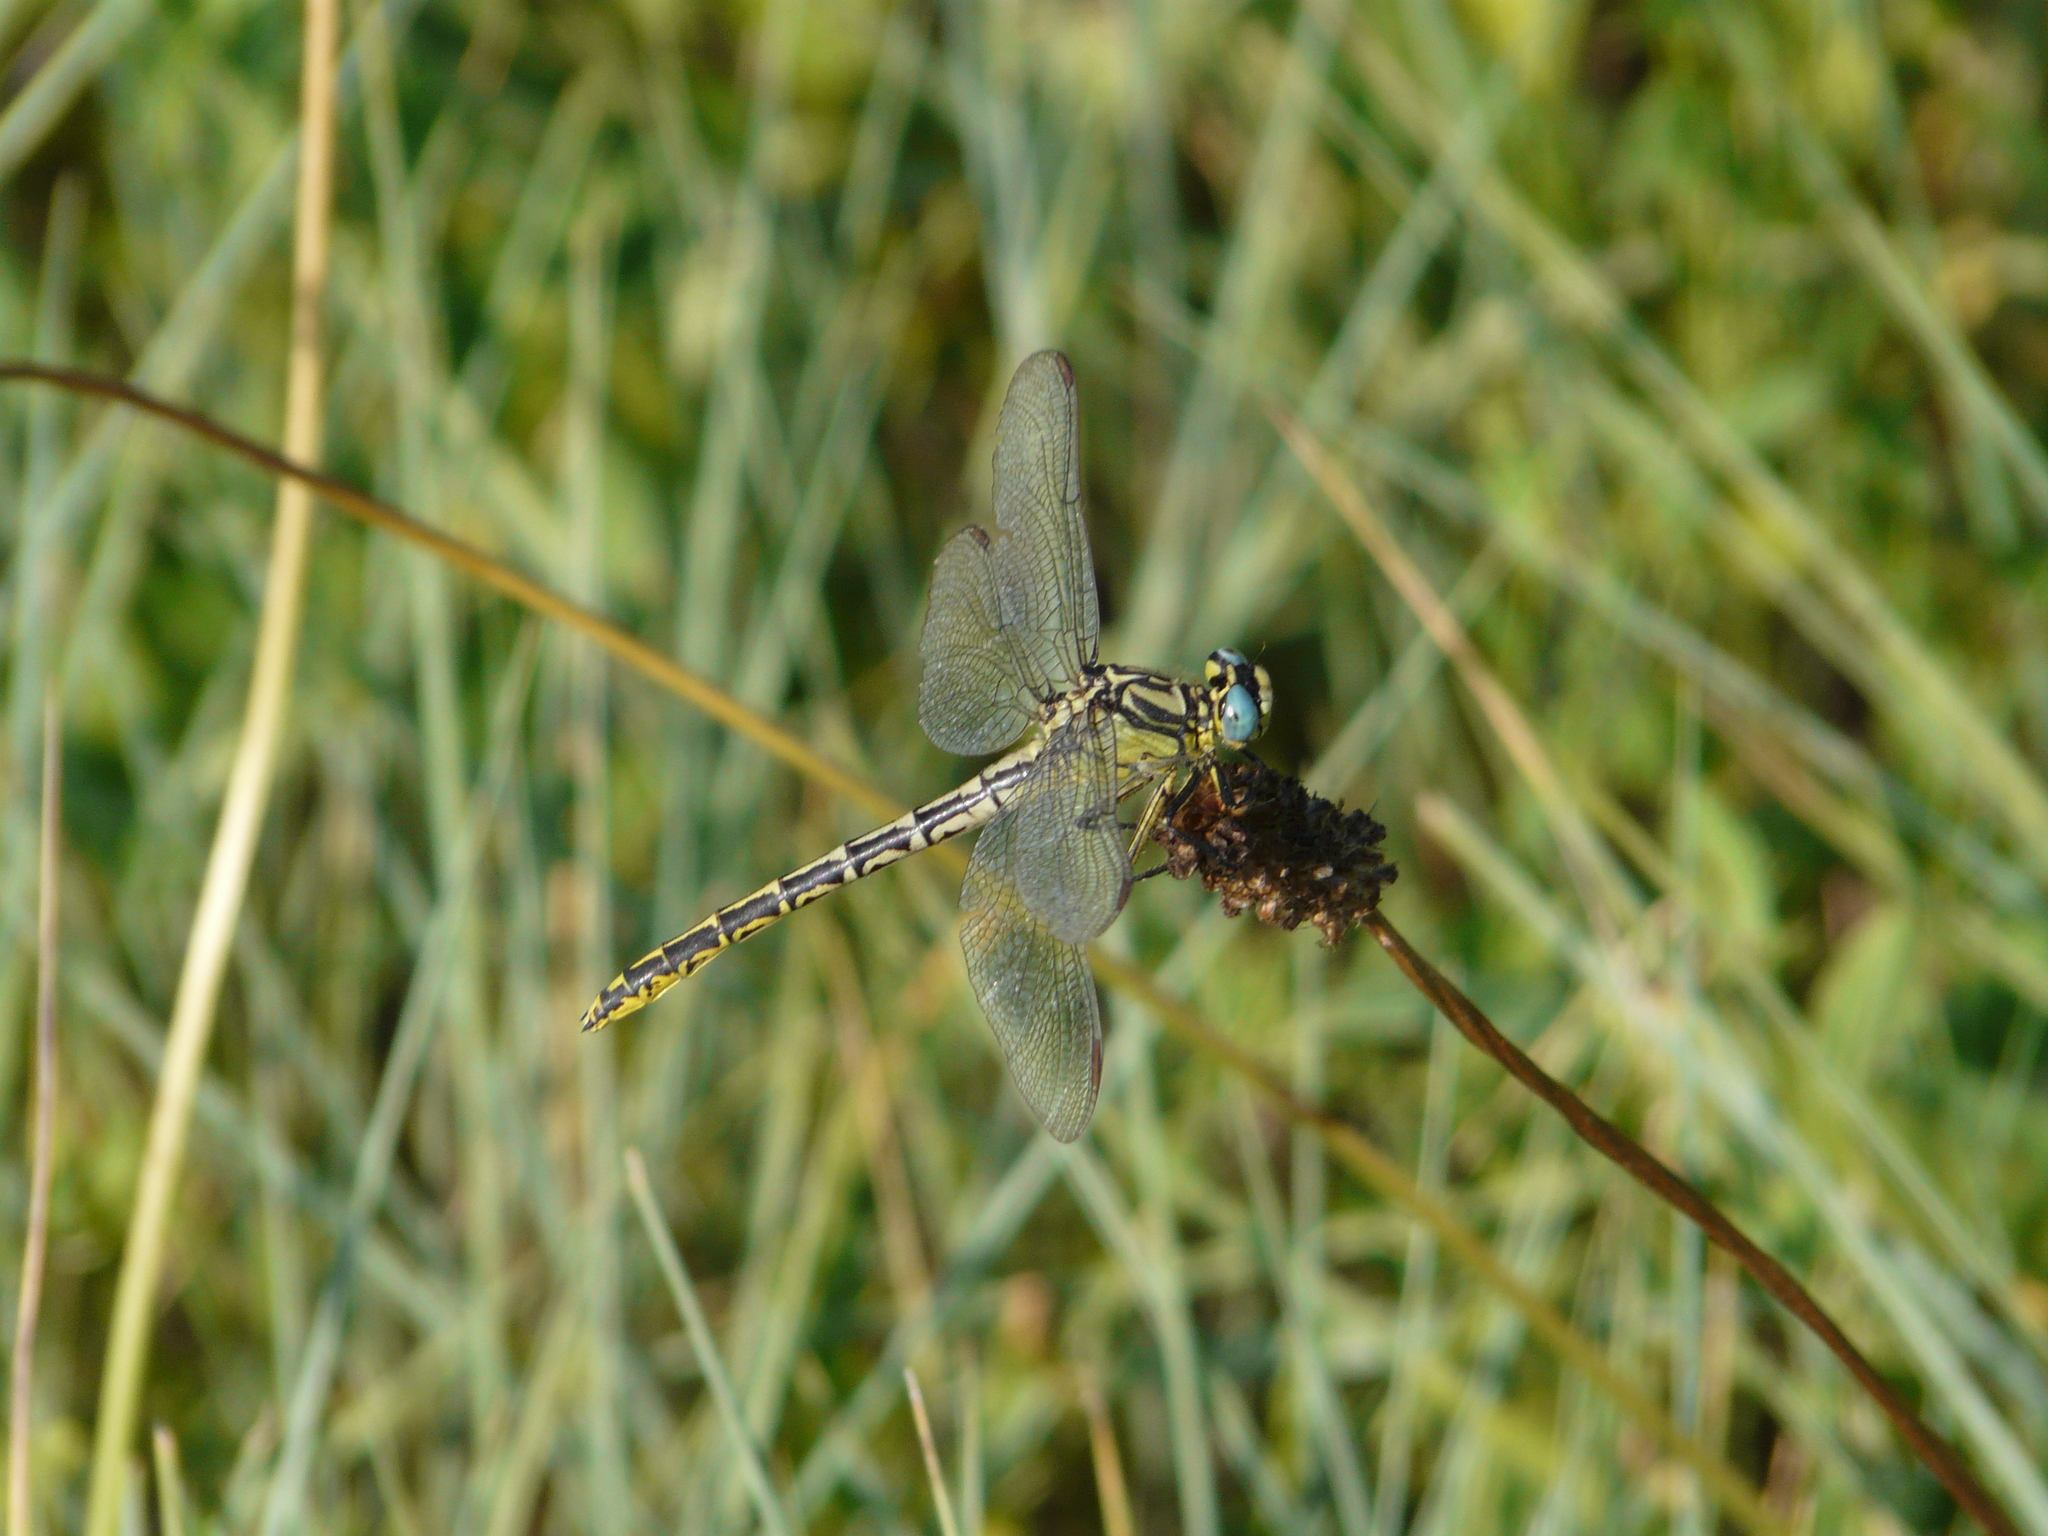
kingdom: Animalia
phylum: Arthropoda
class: Insecta
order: Odonata
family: Gomphidae
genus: Gomphus
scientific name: Gomphus graslinii
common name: Pronged clubtail
